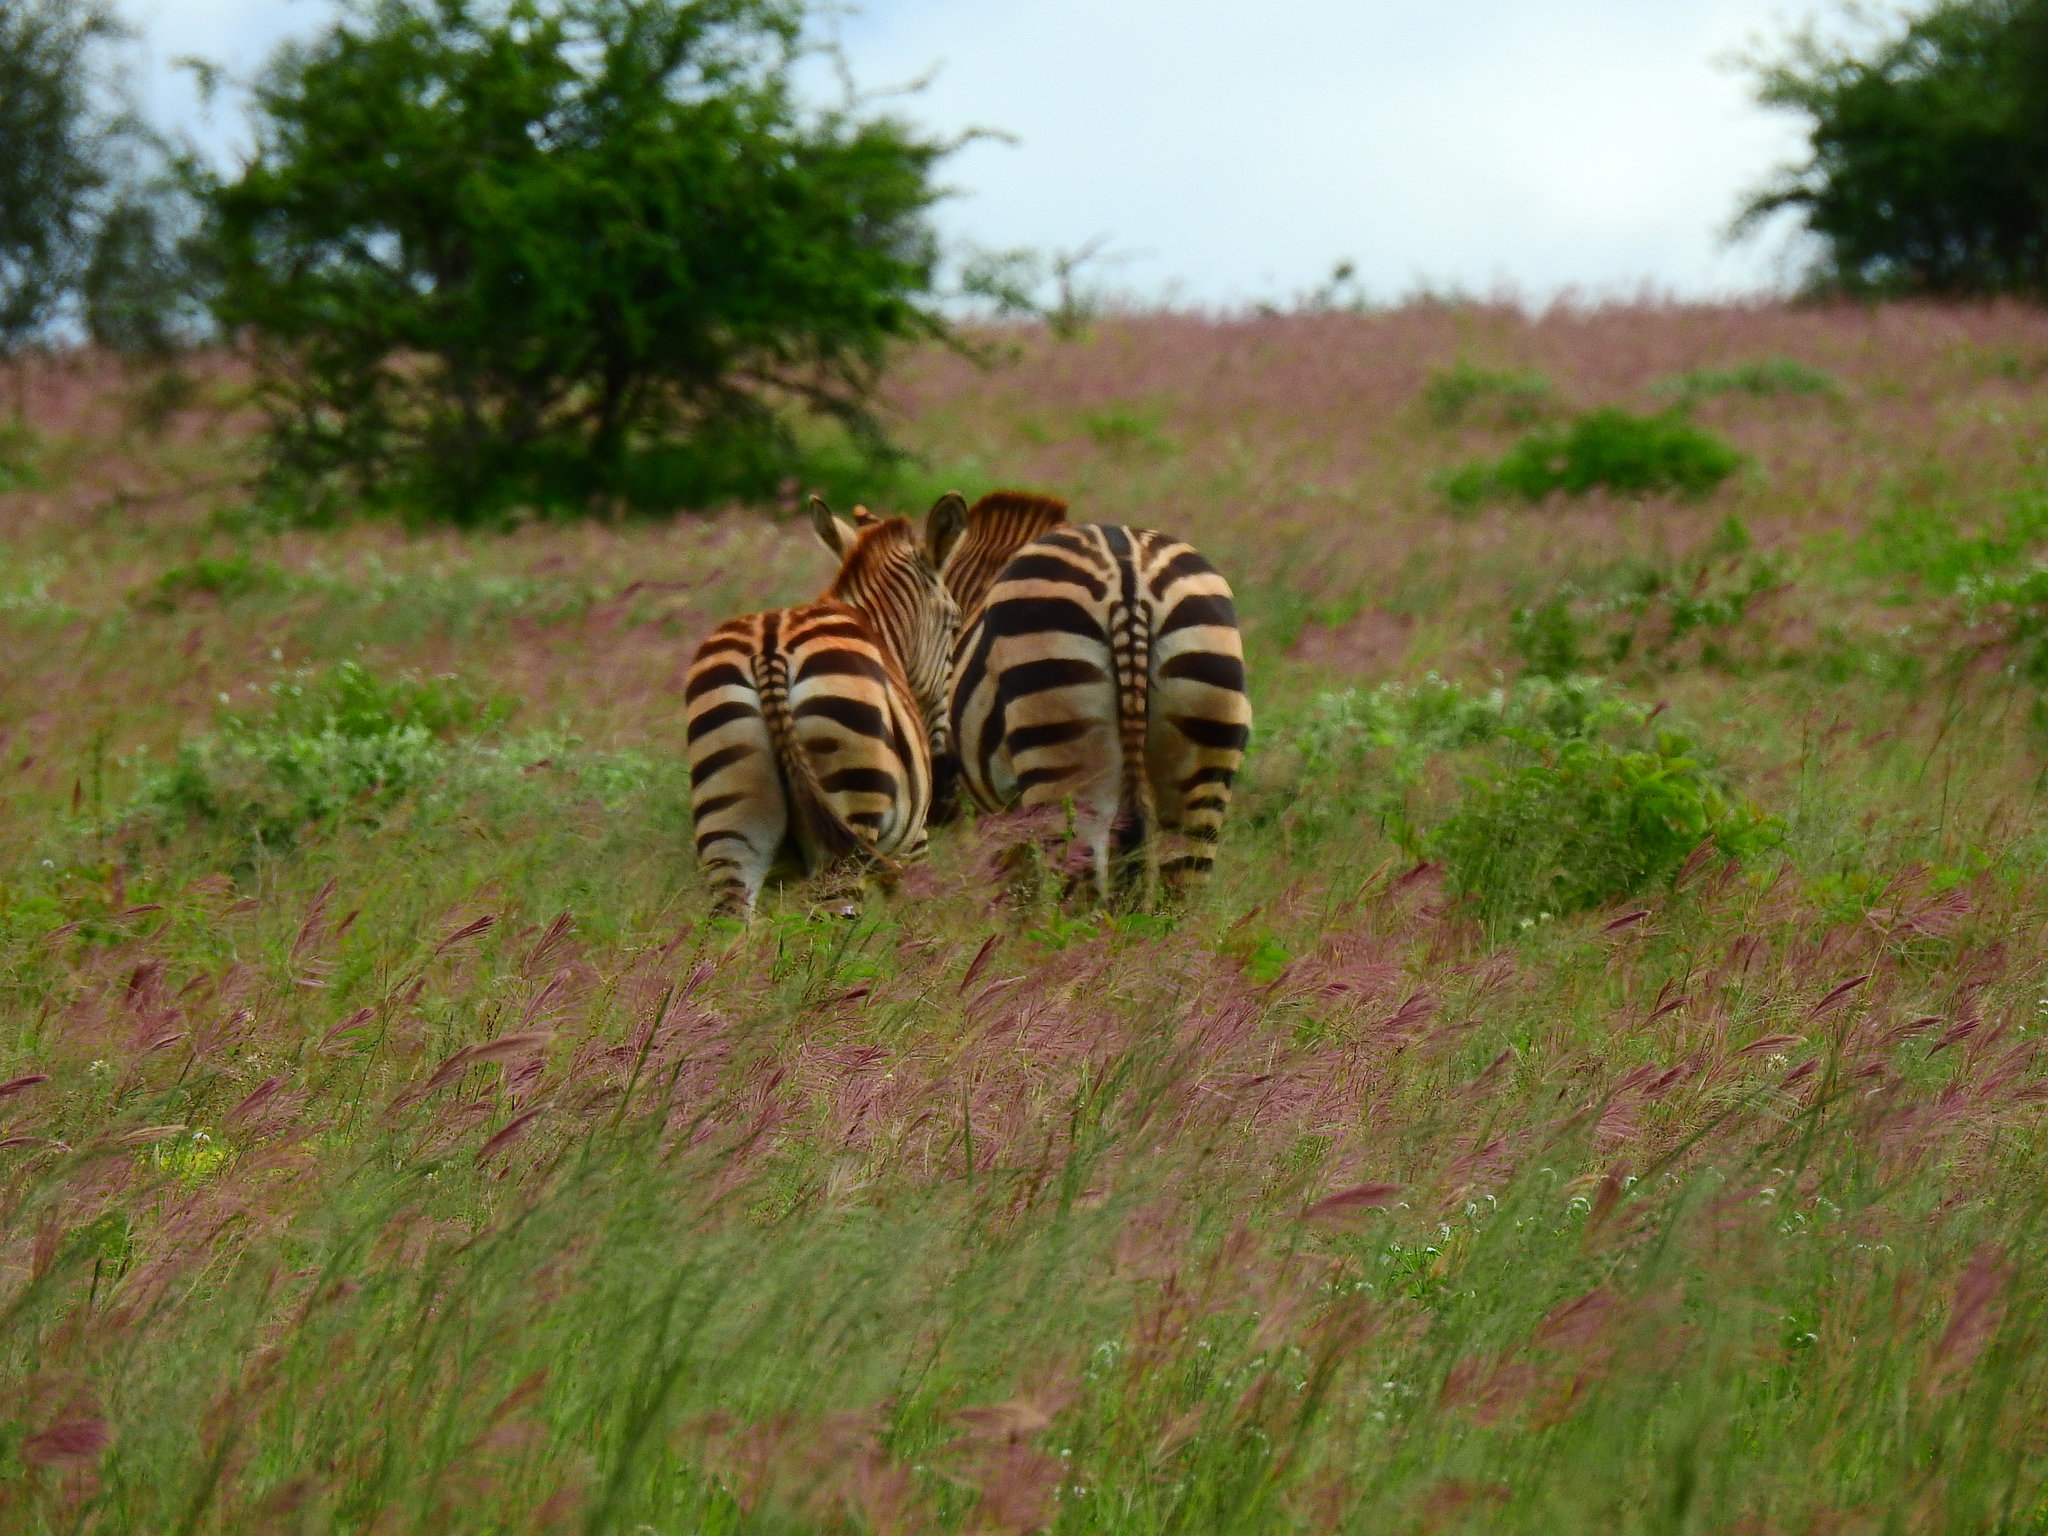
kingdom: Animalia
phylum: Chordata
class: Mammalia
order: Perissodactyla
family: Equidae
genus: Equus
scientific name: Equus quagga
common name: Plains zebra
